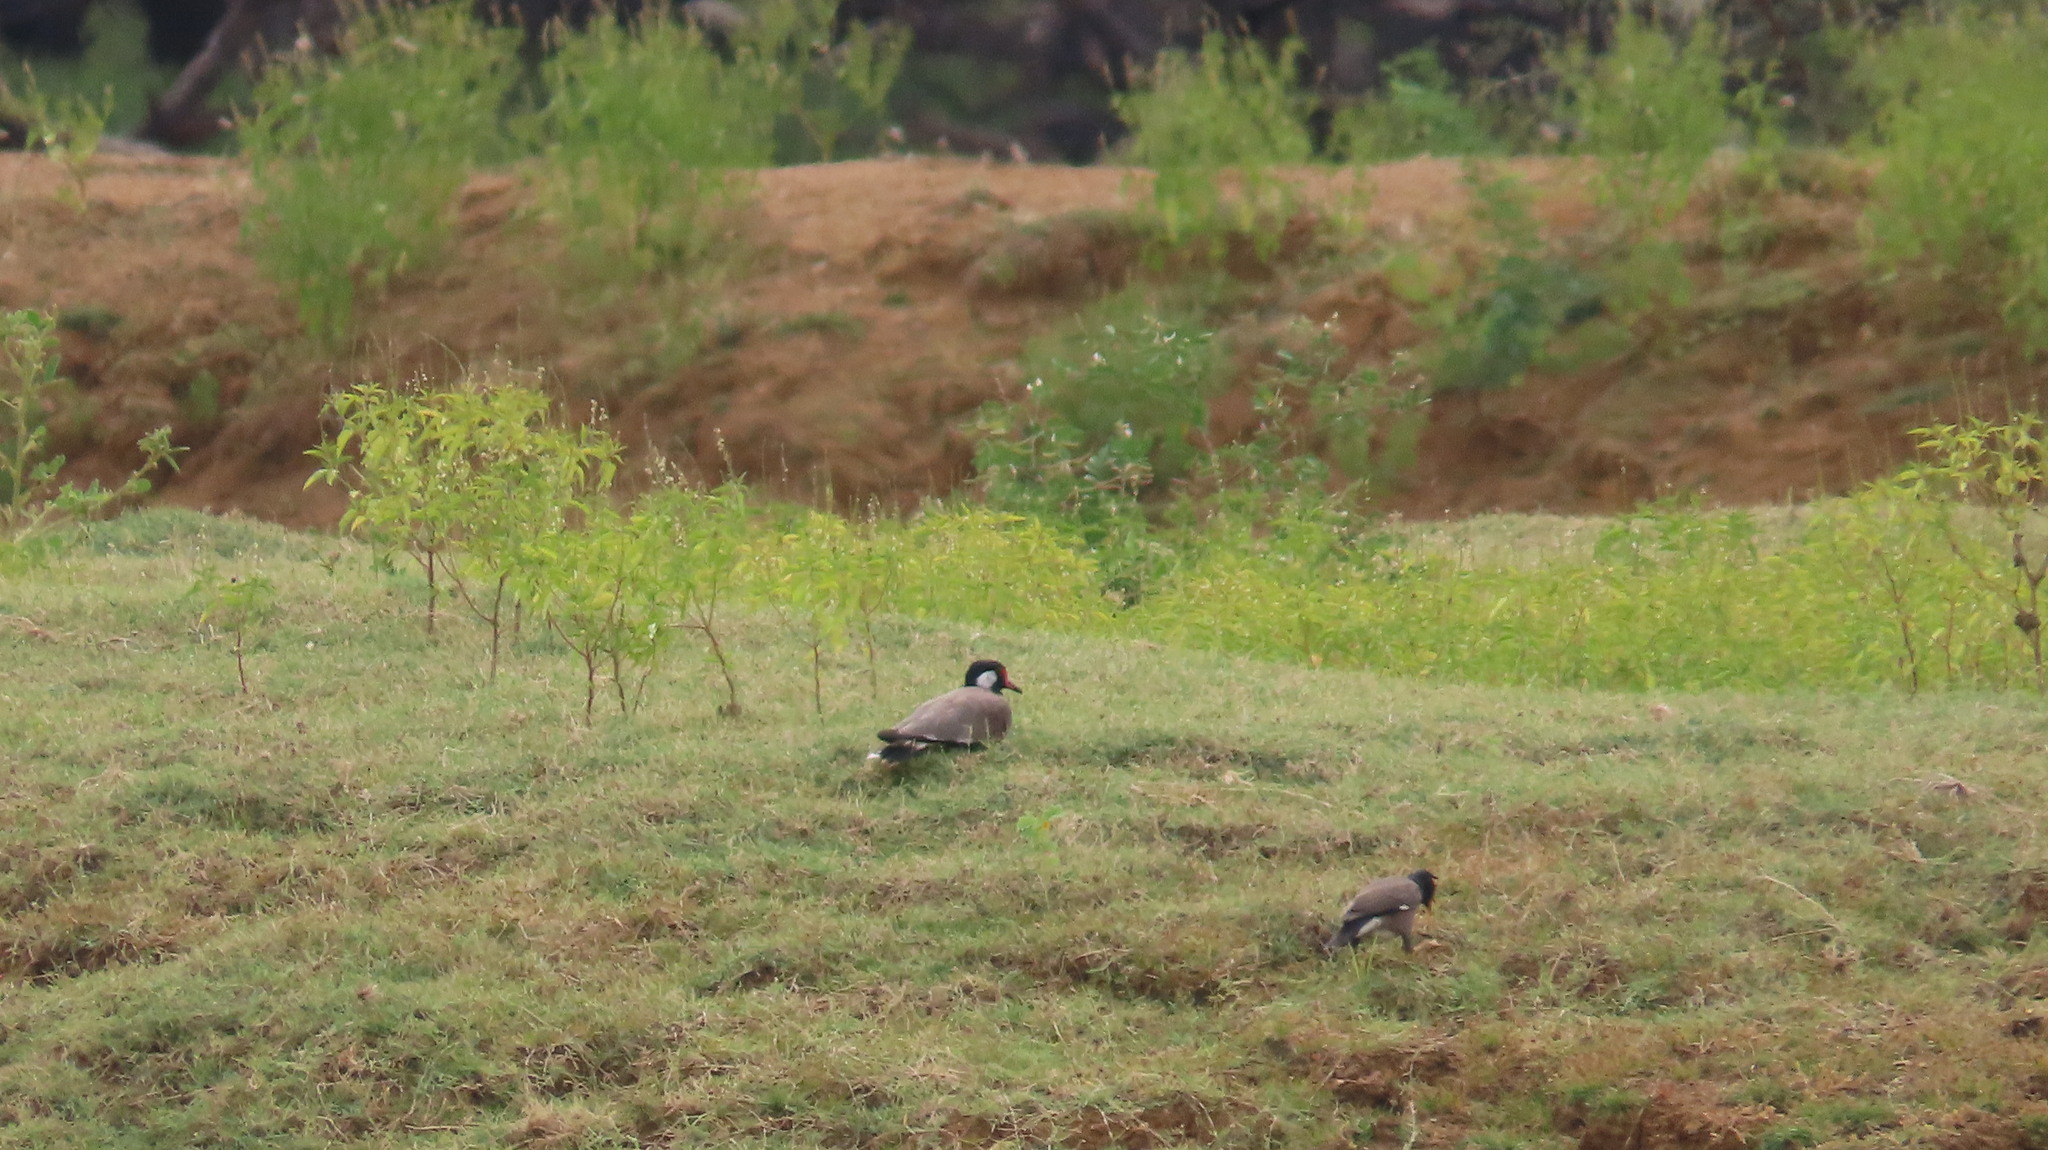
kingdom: Animalia
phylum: Chordata
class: Aves
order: Charadriiformes
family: Charadriidae
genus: Vanellus
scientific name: Vanellus indicus
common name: Red-wattled lapwing
